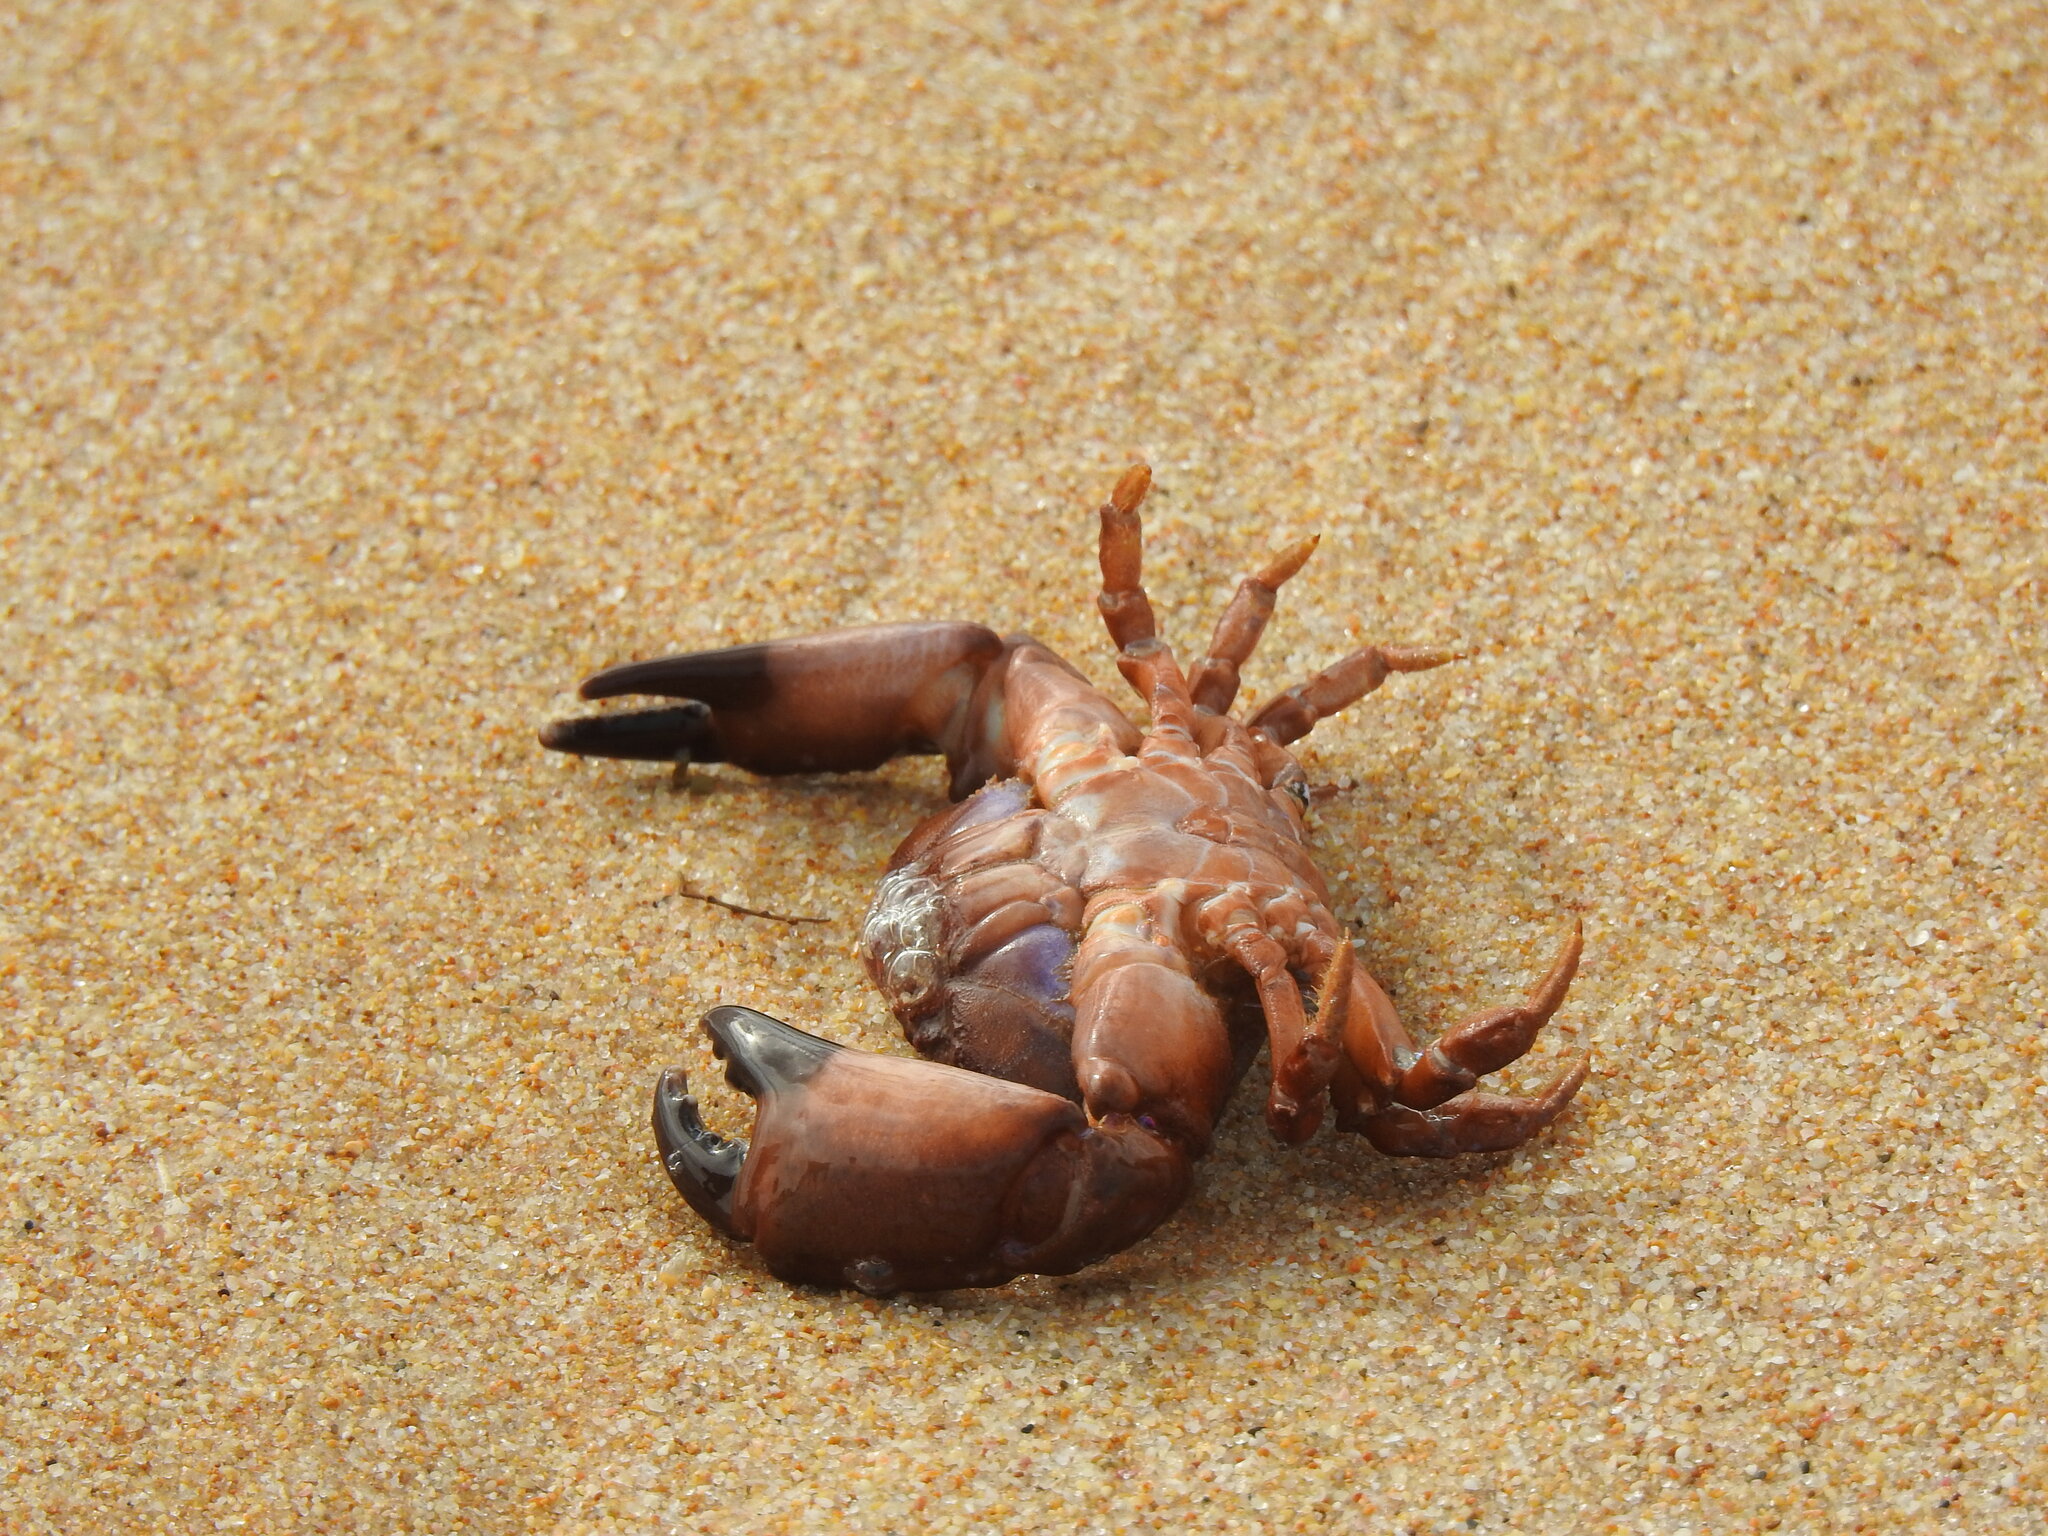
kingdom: Animalia
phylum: Arthropoda
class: Malacostraca
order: Decapoda
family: Xanthidae
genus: Xantho
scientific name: Xantho hydrophilus
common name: Montagu's crab
